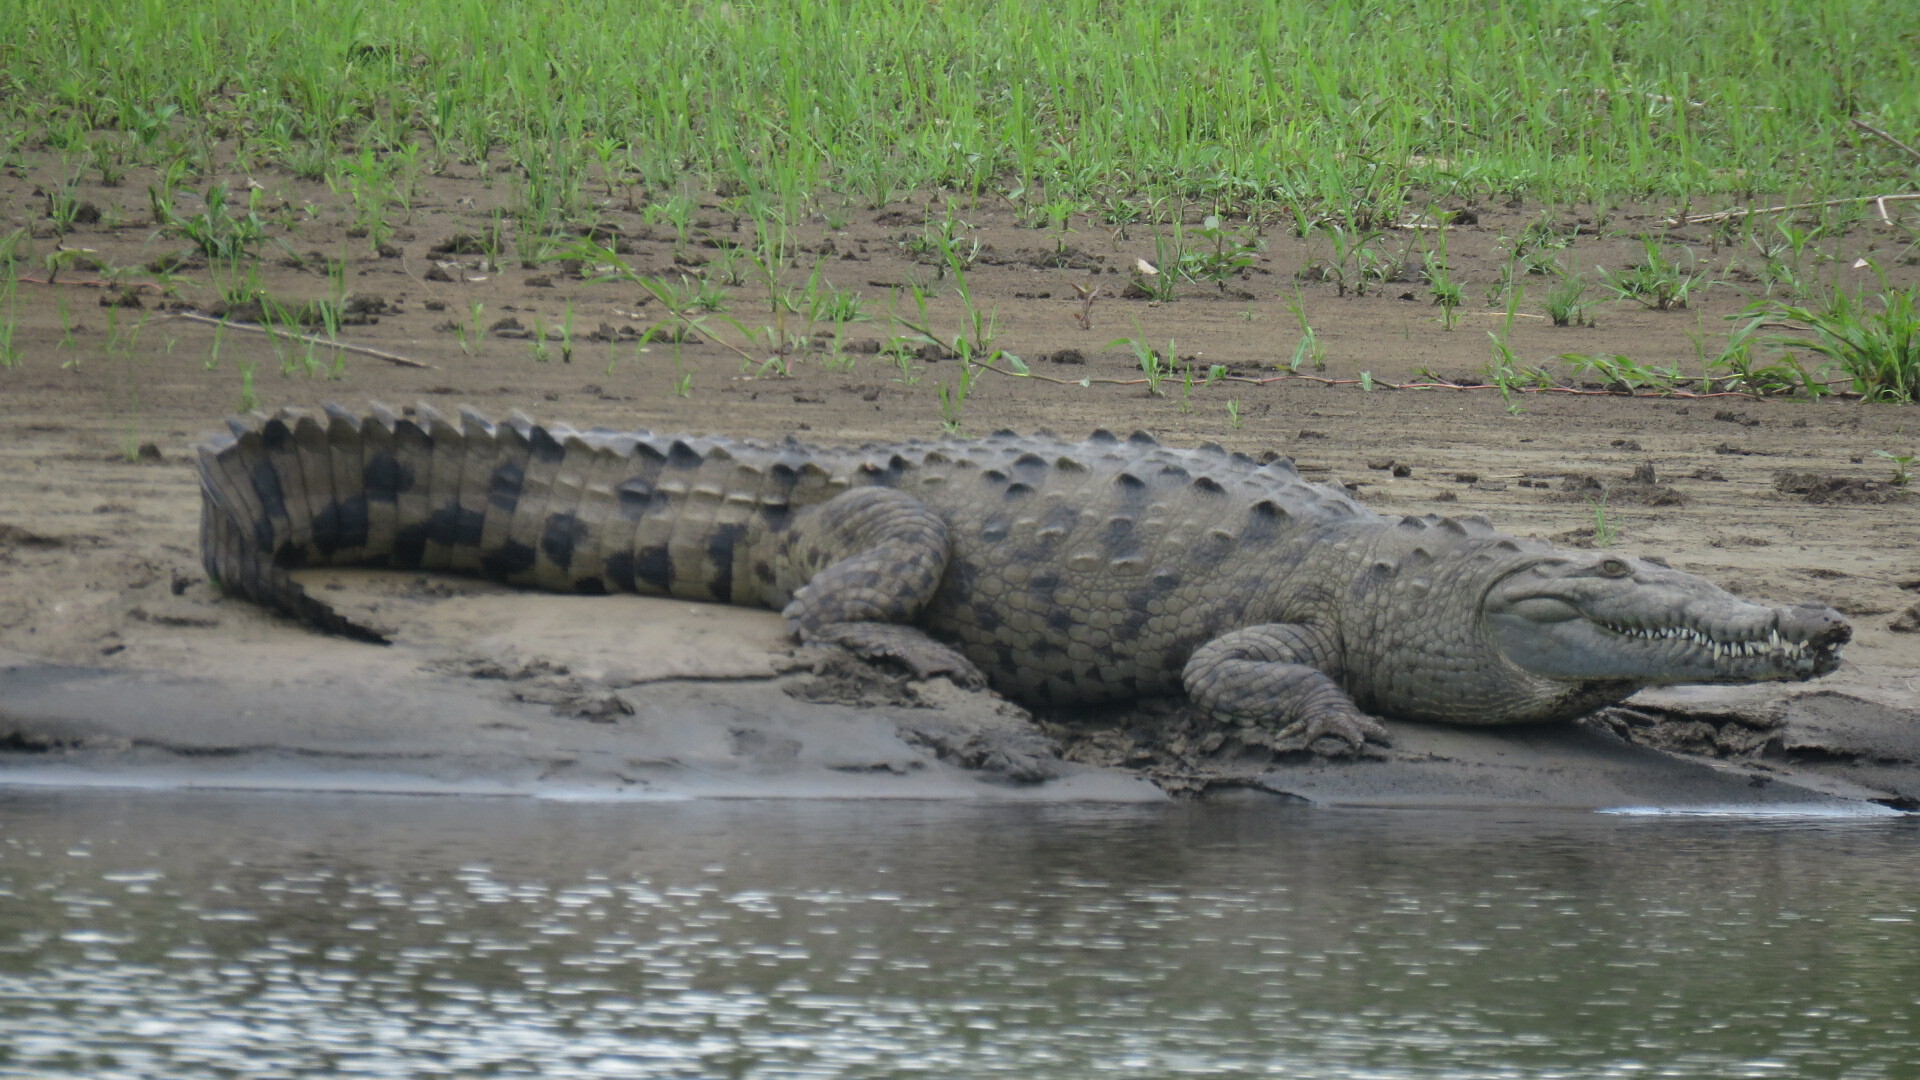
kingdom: Animalia
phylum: Chordata
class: Crocodylia
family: Crocodylidae
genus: Crocodylus
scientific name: Crocodylus acutus
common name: American crocodile
